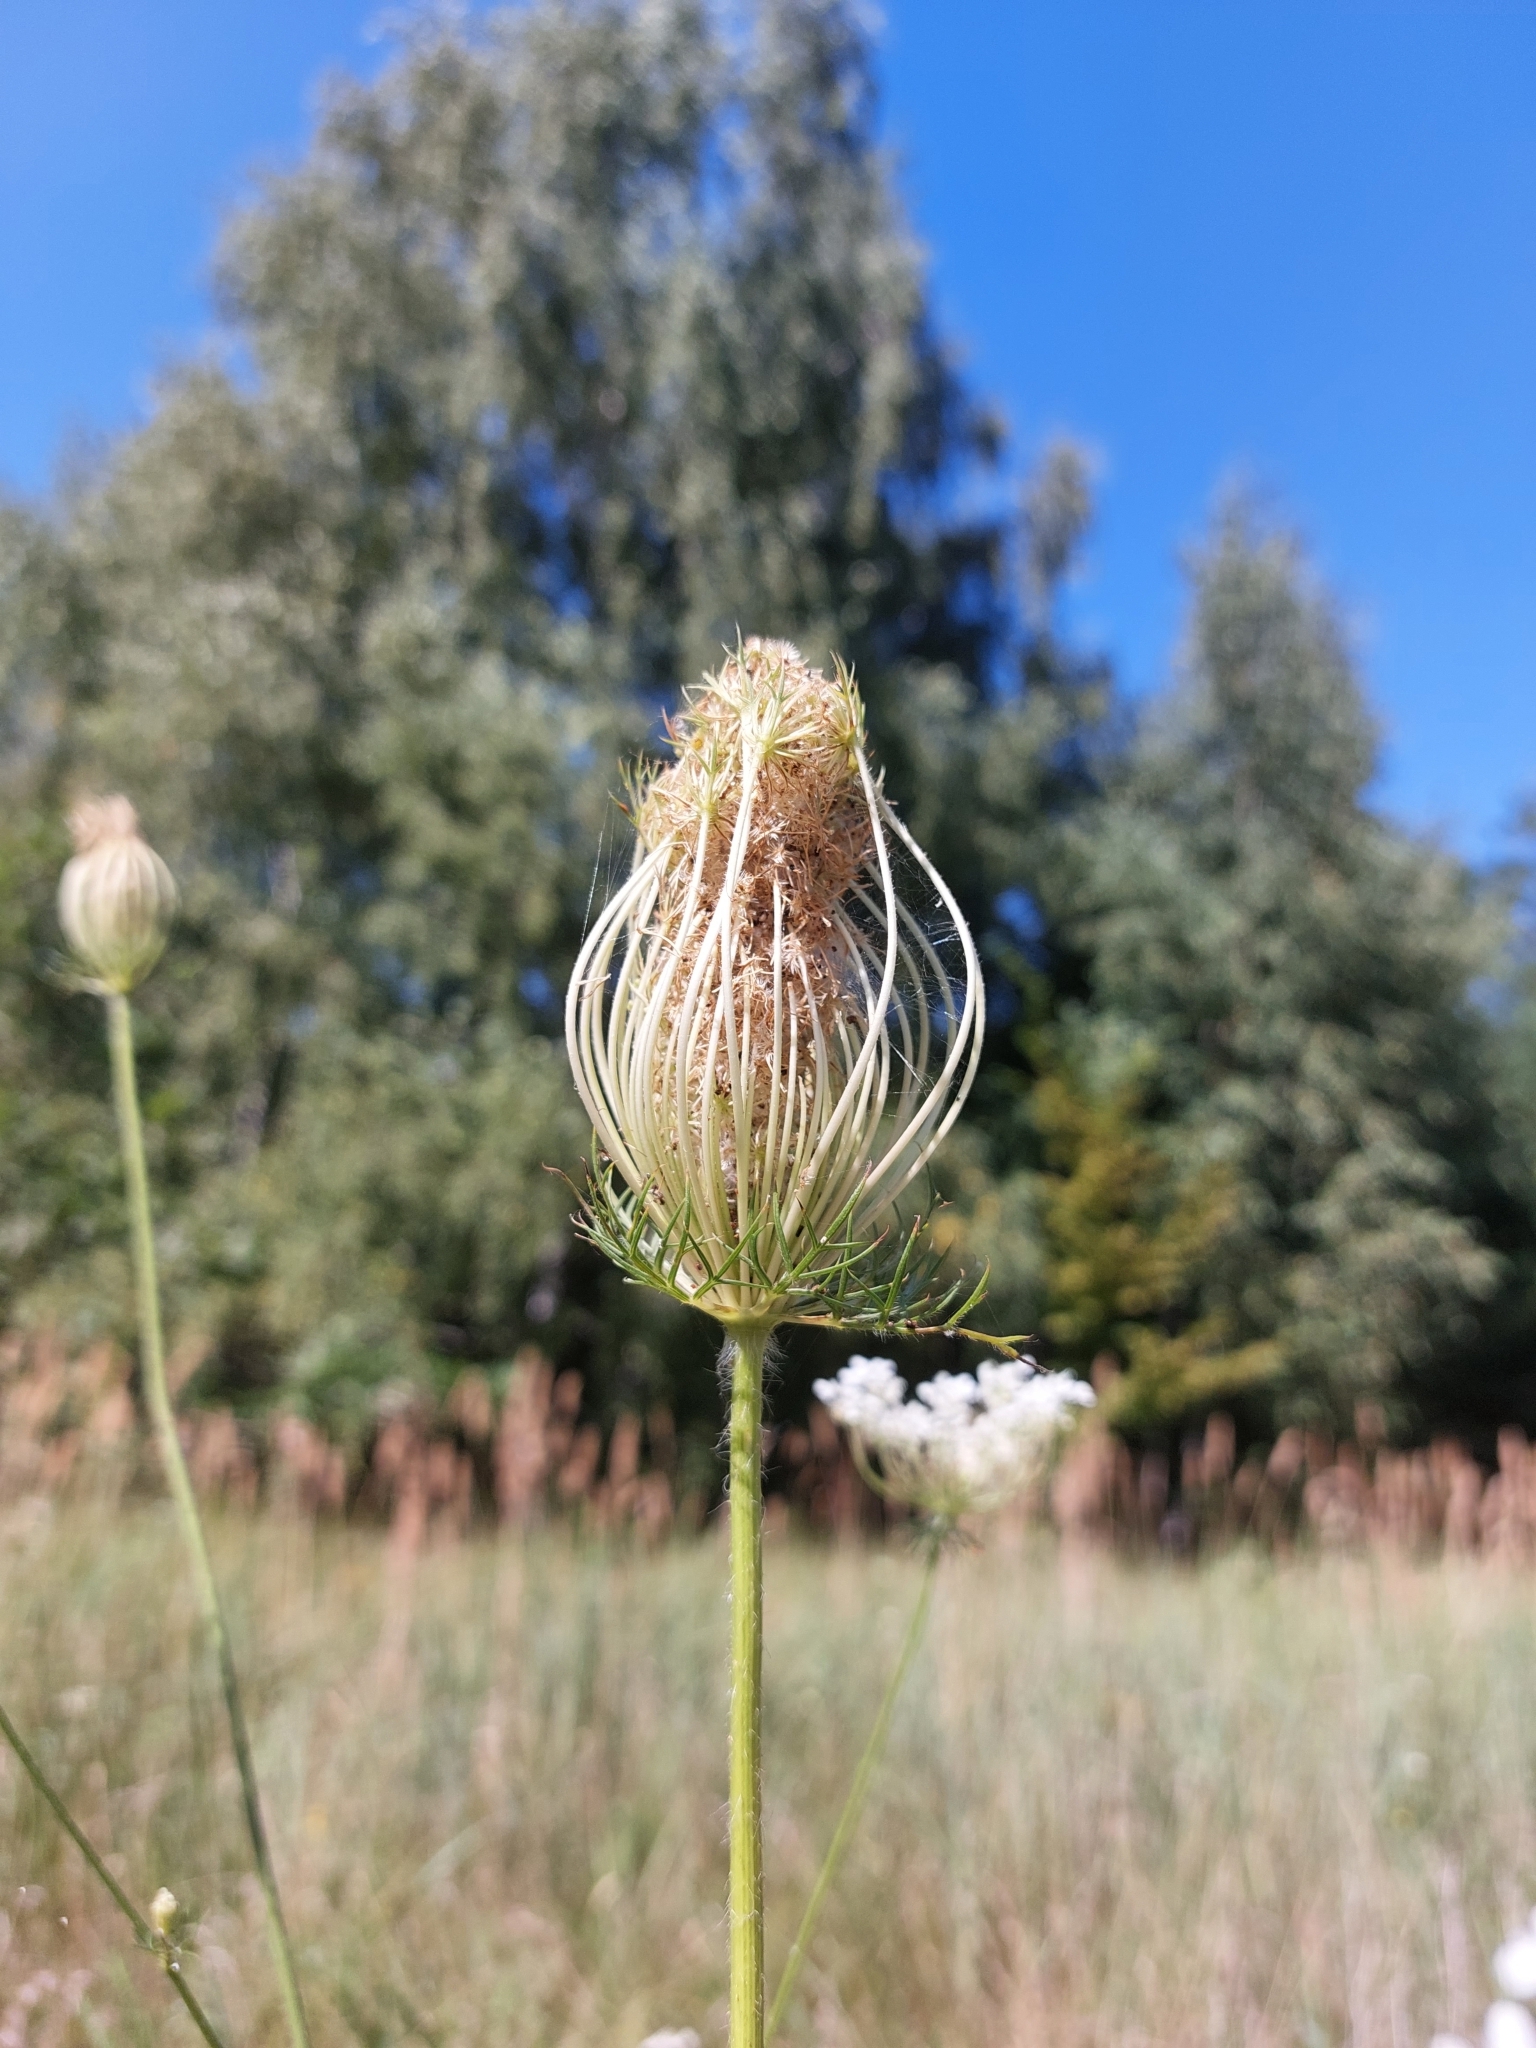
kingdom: Plantae
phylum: Tracheophyta
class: Magnoliopsida
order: Apiales
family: Apiaceae
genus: Daucus
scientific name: Daucus carota
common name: Wild carrot
